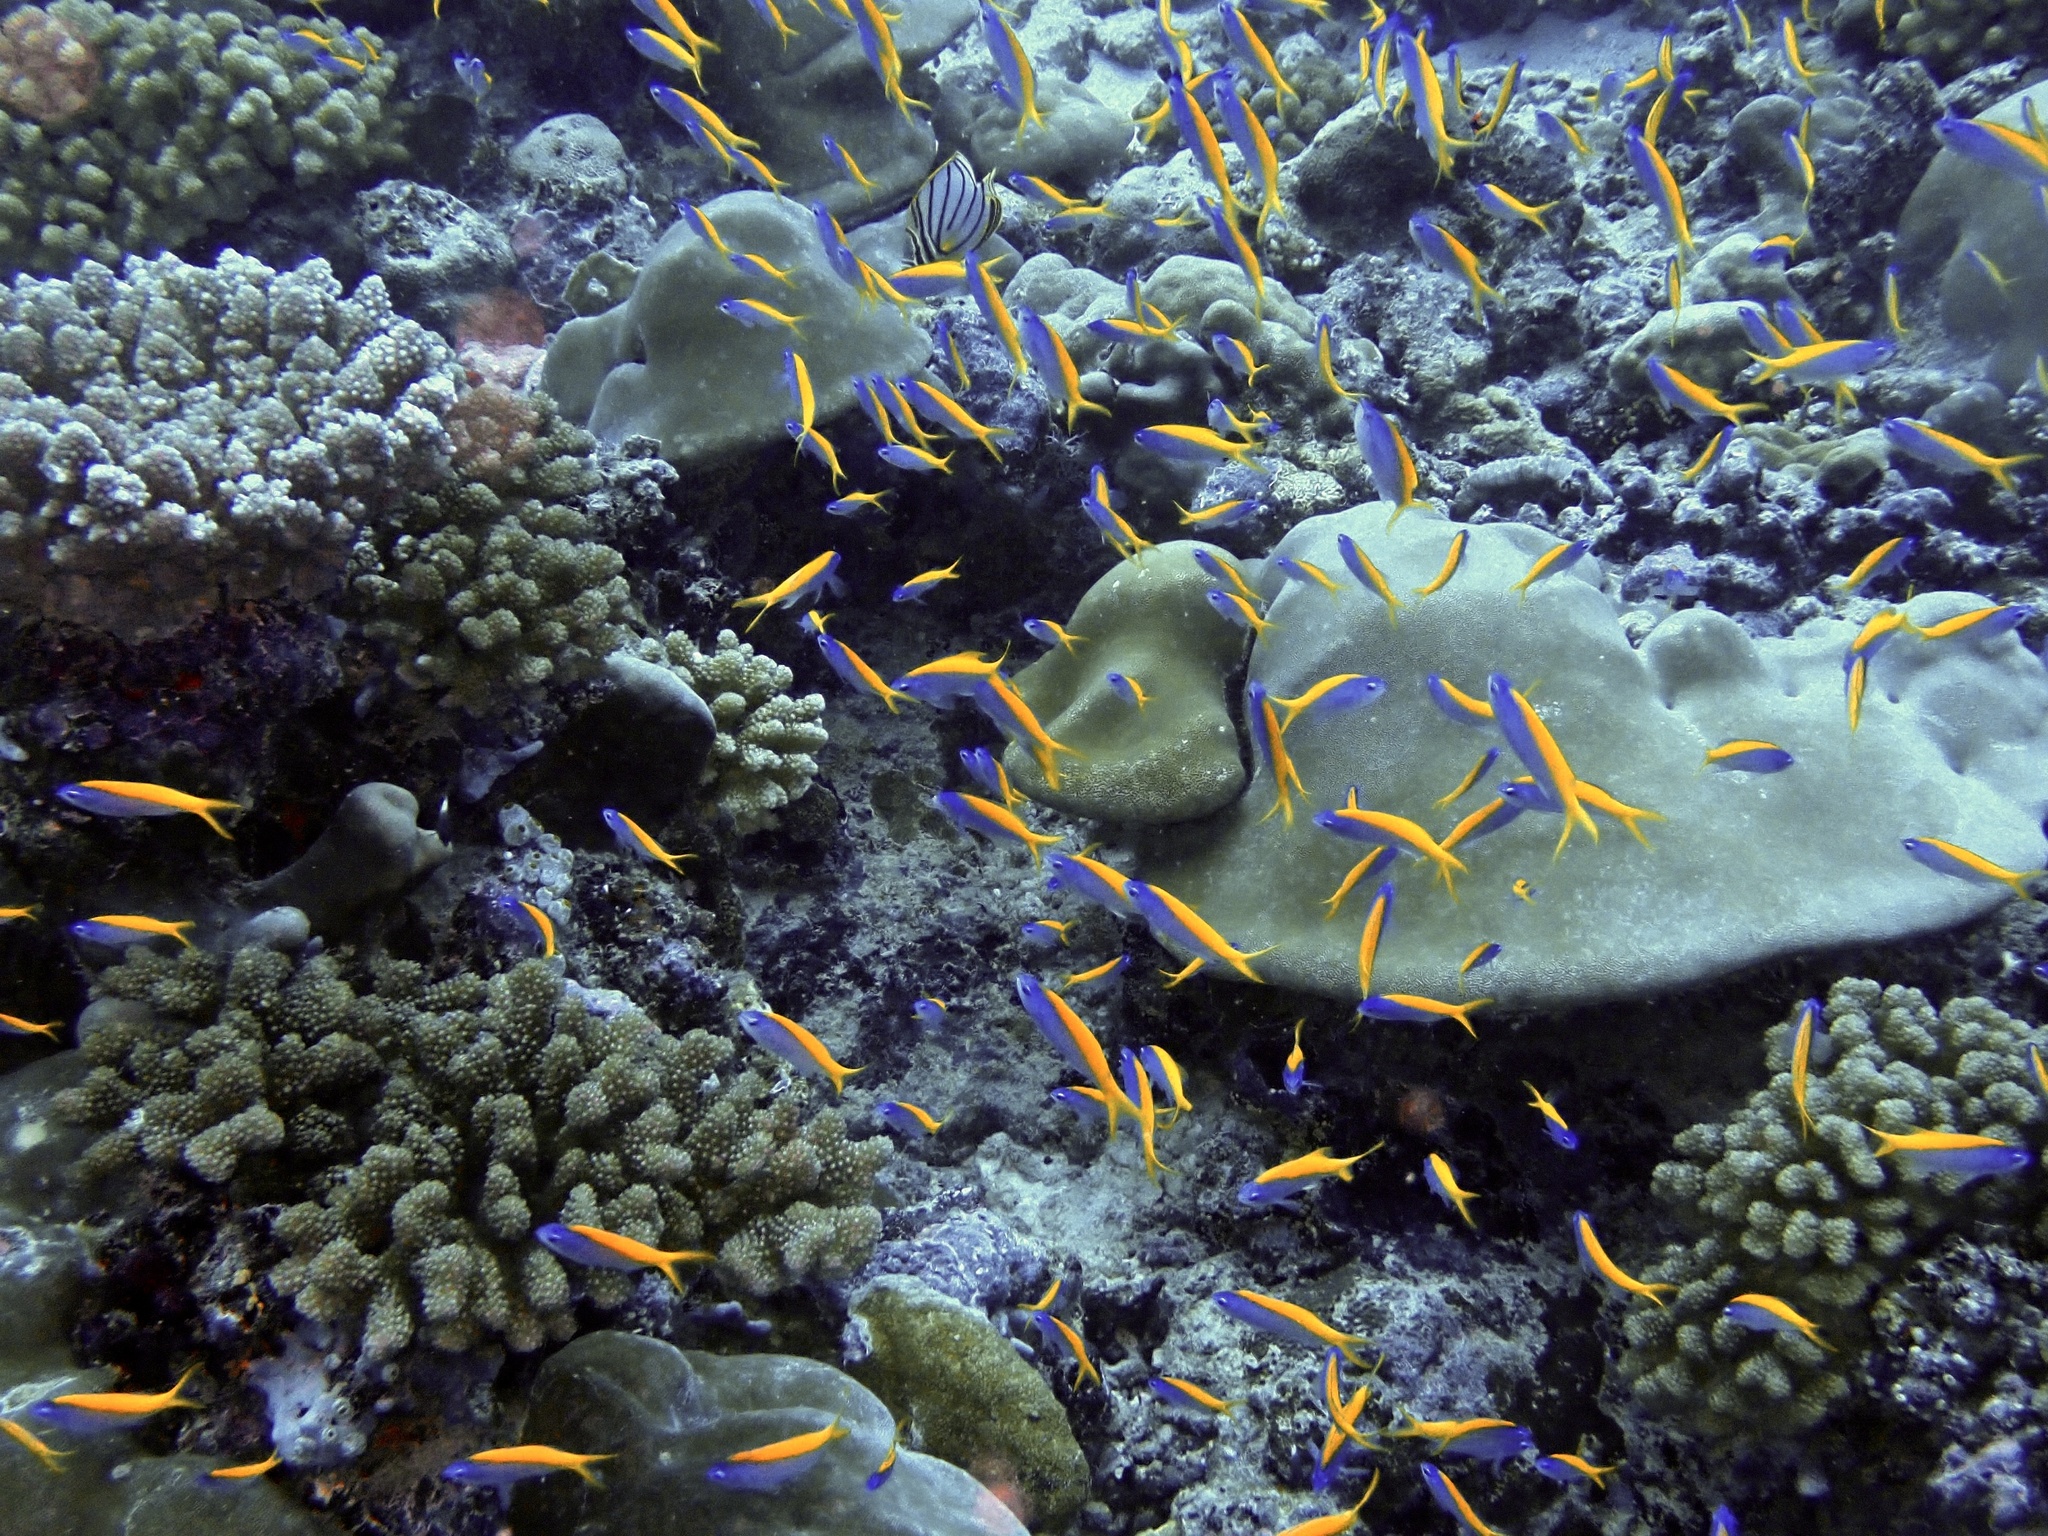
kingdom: Animalia
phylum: Chordata
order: Perciformes
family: Serranidae
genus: Pseudanthias
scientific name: Pseudanthias evansi
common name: Goldback anthias
